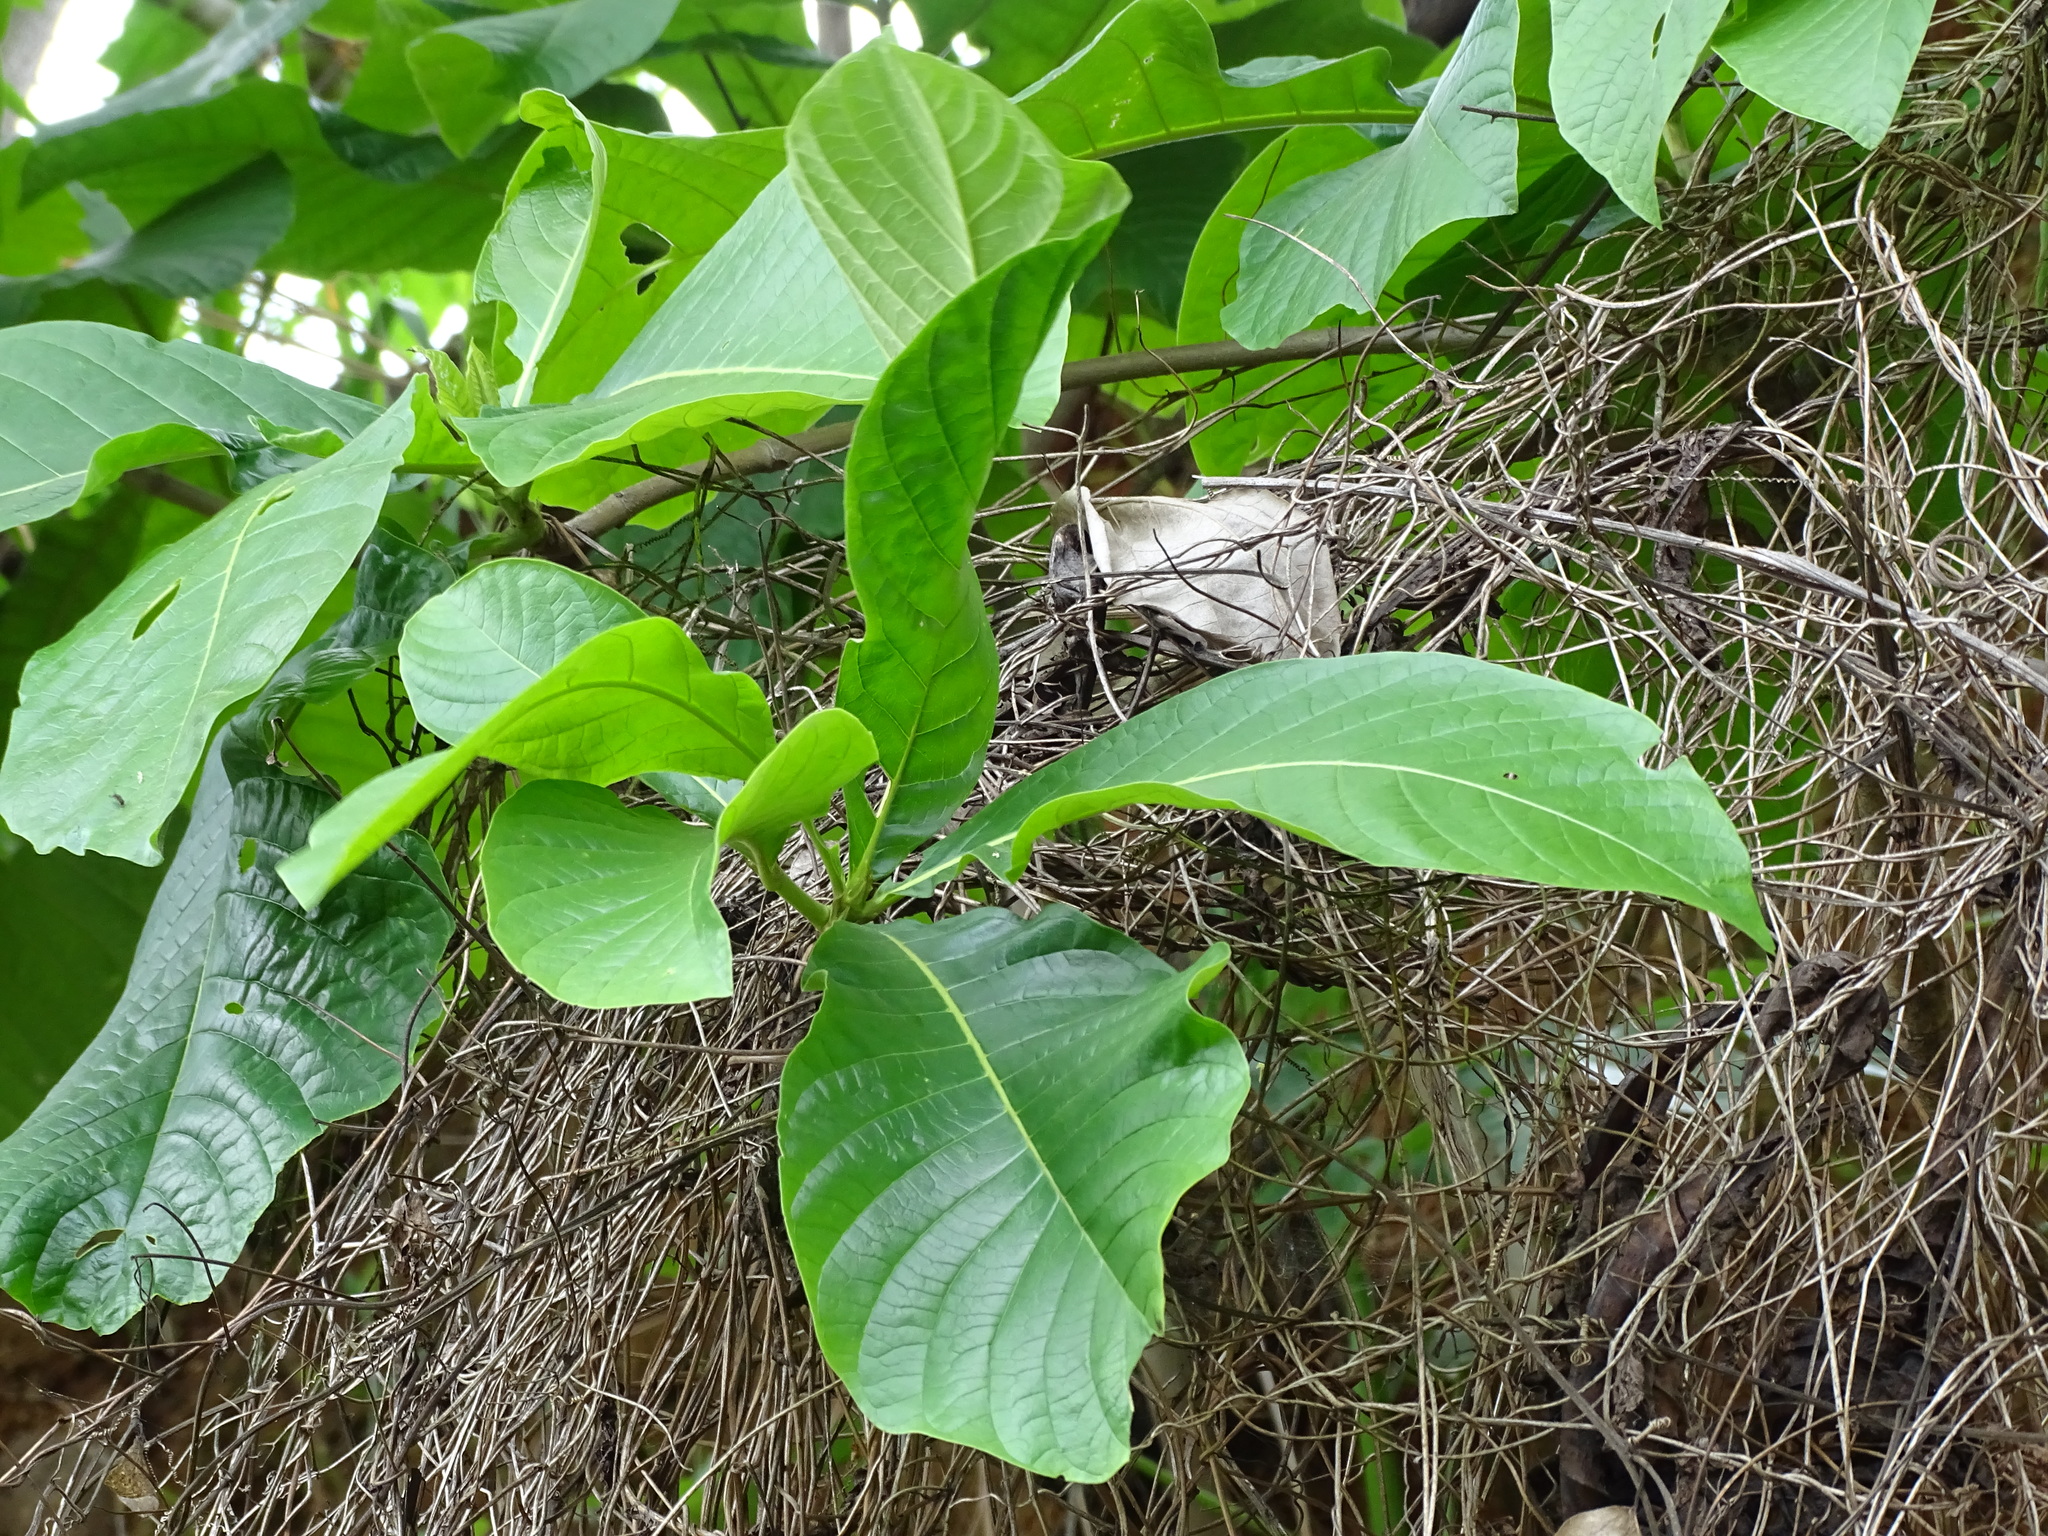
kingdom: Plantae
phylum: Tracheophyta
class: Magnoliopsida
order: Gentianales
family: Rubiaceae
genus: Genipa
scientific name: Genipa americana
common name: Genipap
